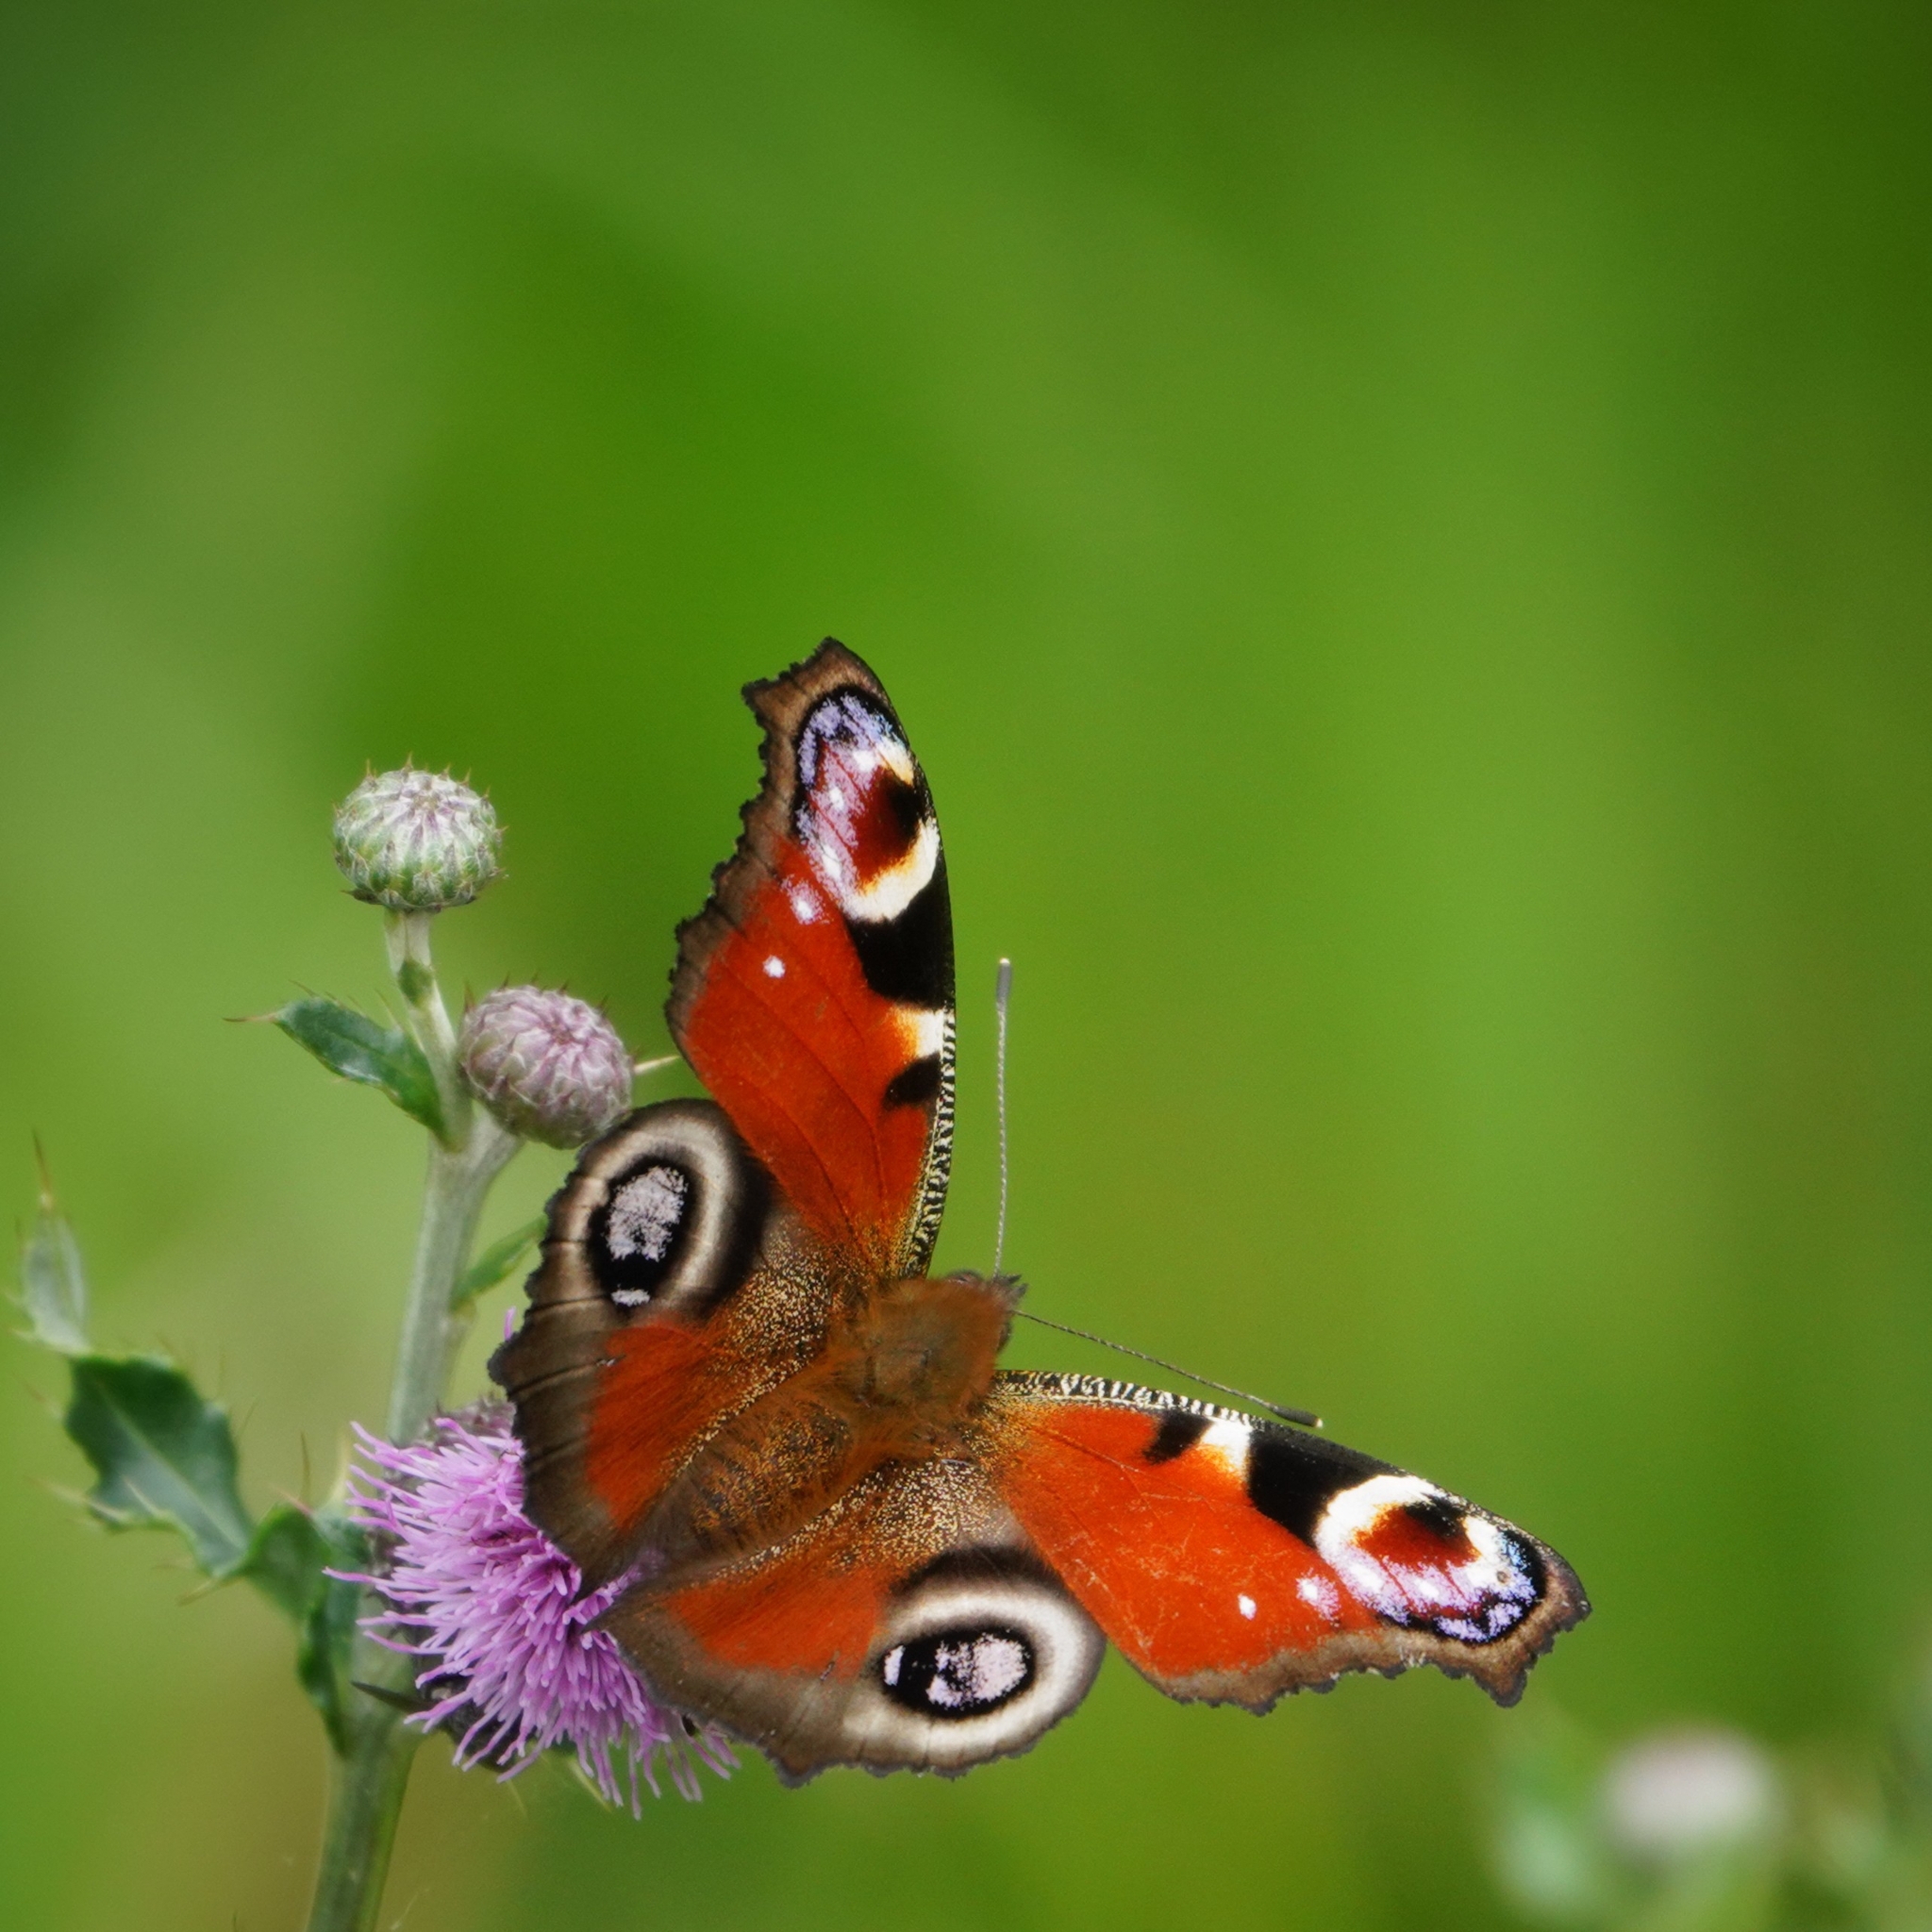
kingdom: Animalia
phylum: Arthropoda
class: Insecta
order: Lepidoptera
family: Nymphalidae
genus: Aglais
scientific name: Aglais io
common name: Peacock
